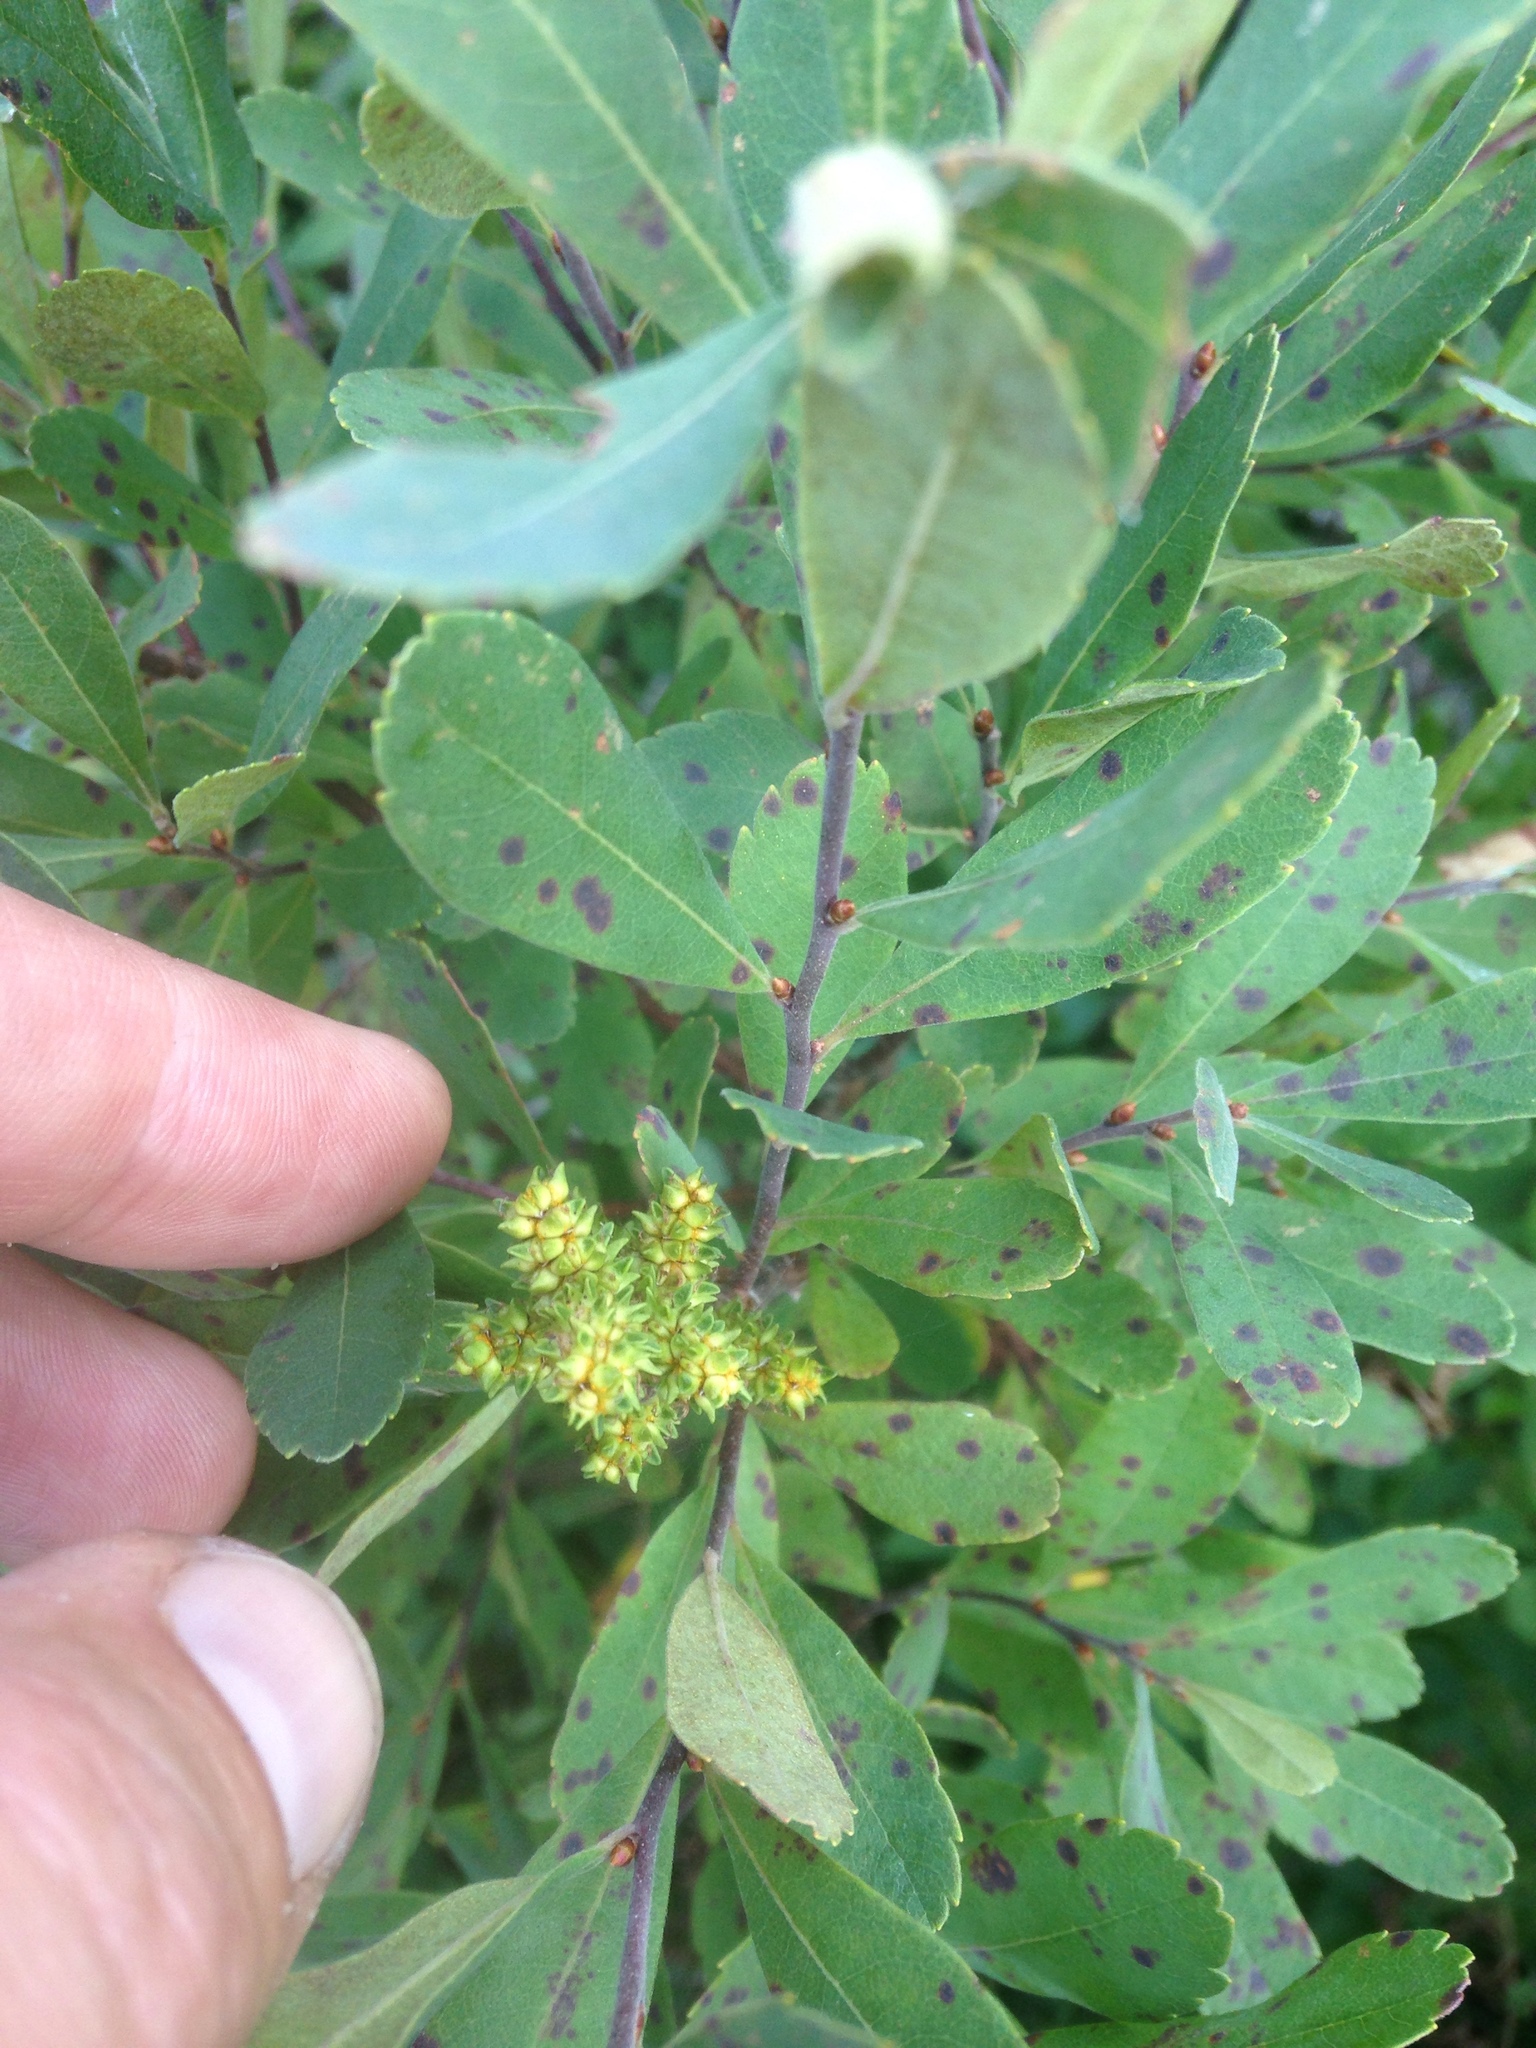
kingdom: Plantae
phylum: Tracheophyta
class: Magnoliopsida
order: Fagales
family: Myricaceae
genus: Myrica
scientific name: Myrica gale
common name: Sweet gale
